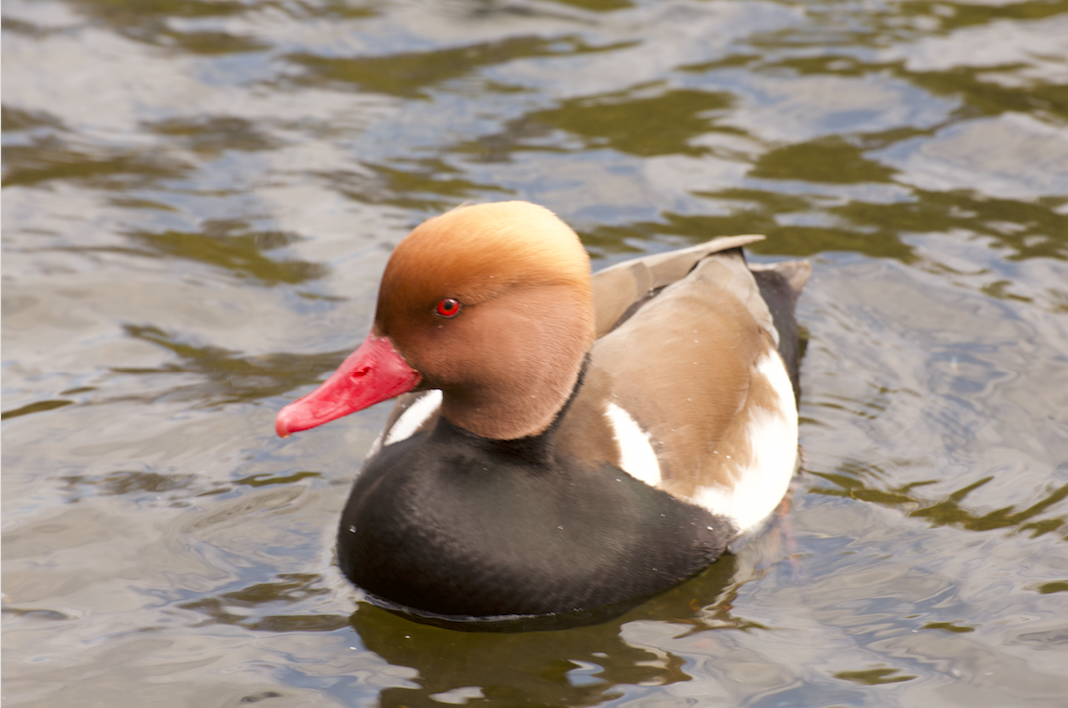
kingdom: Animalia
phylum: Chordata
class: Aves
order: Anseriformes
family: Anatidae
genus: Netta
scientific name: Netta rufina
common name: Red-crested pochard
